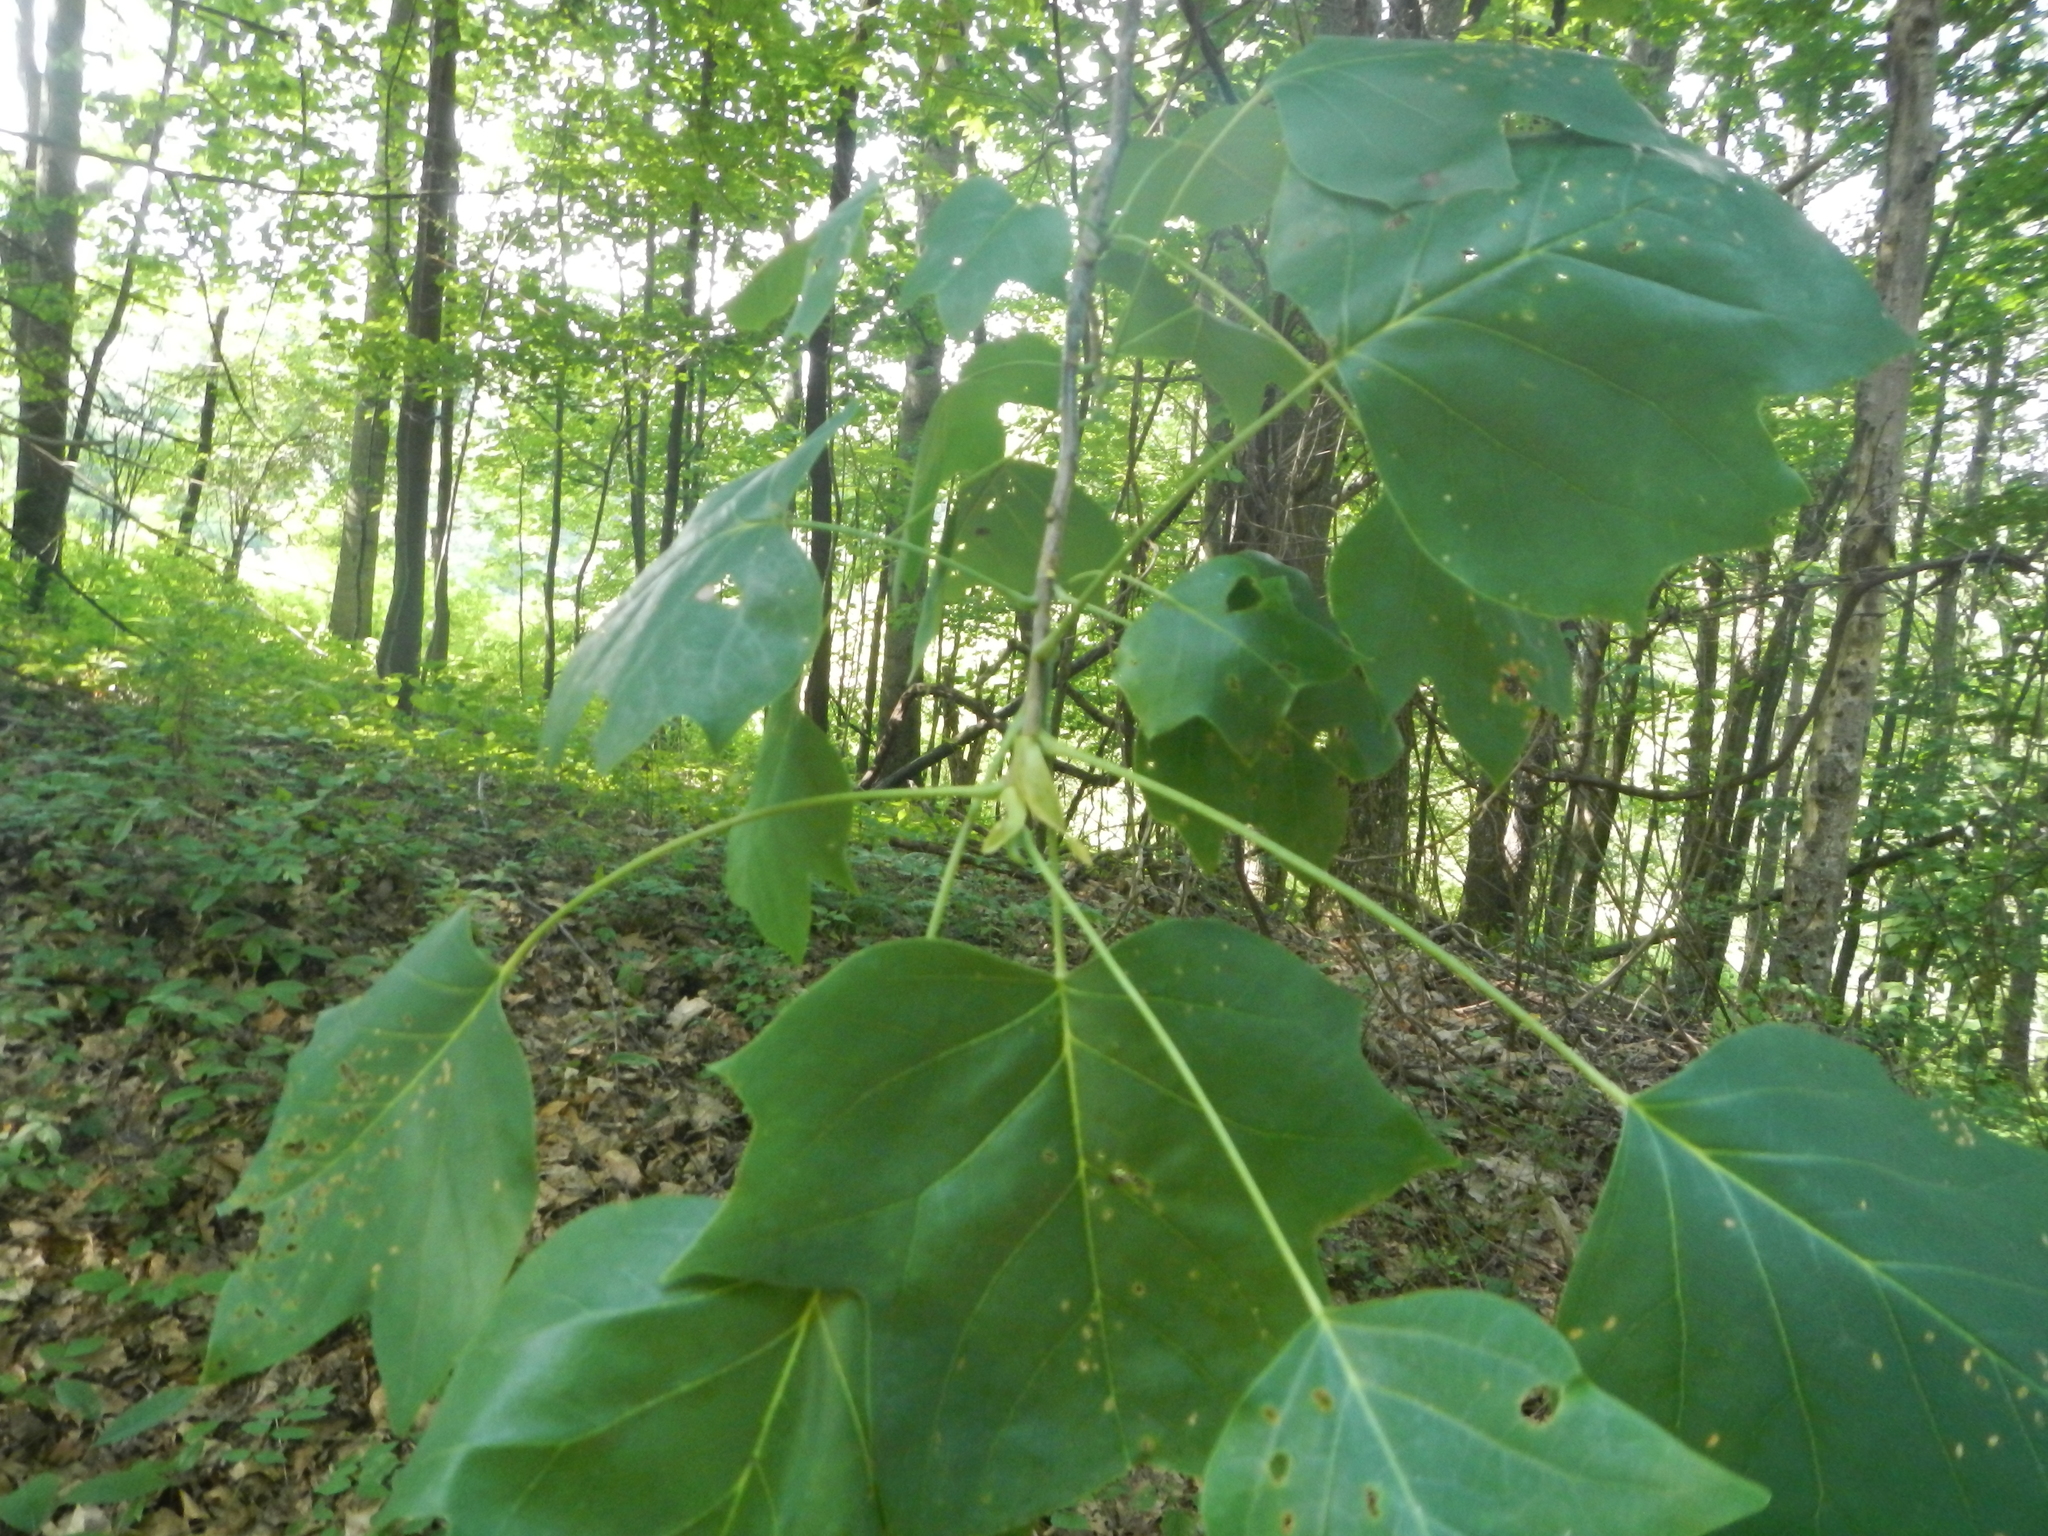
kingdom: Plantae
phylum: Tracheophyta
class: Magnoliopsida
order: Magnoliales
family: Magnoliaceae
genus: Liriodendron
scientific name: Liriodendron tulipifera
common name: Tulip tree
